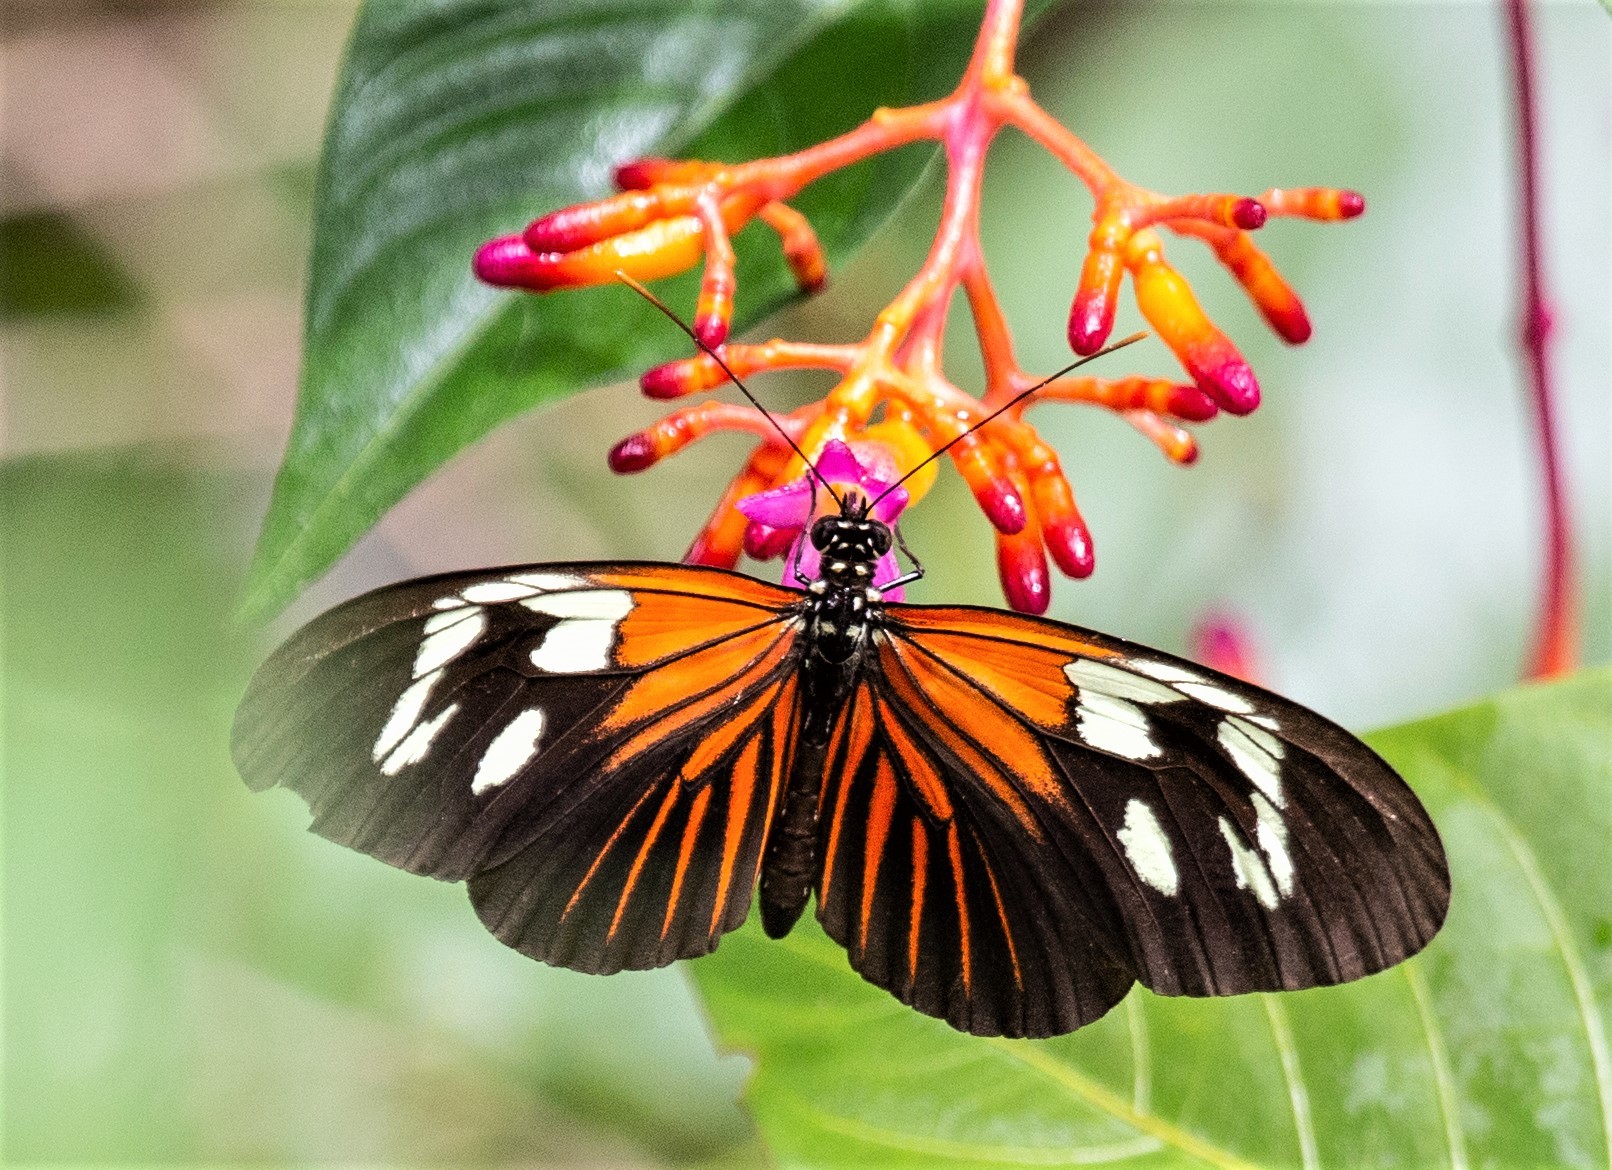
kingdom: Animalia
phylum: Arthropoda
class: Insecta
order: Lepidoptera
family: Nymphalidae
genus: Heliconius
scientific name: Heliconius erato
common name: Common patch longwing
